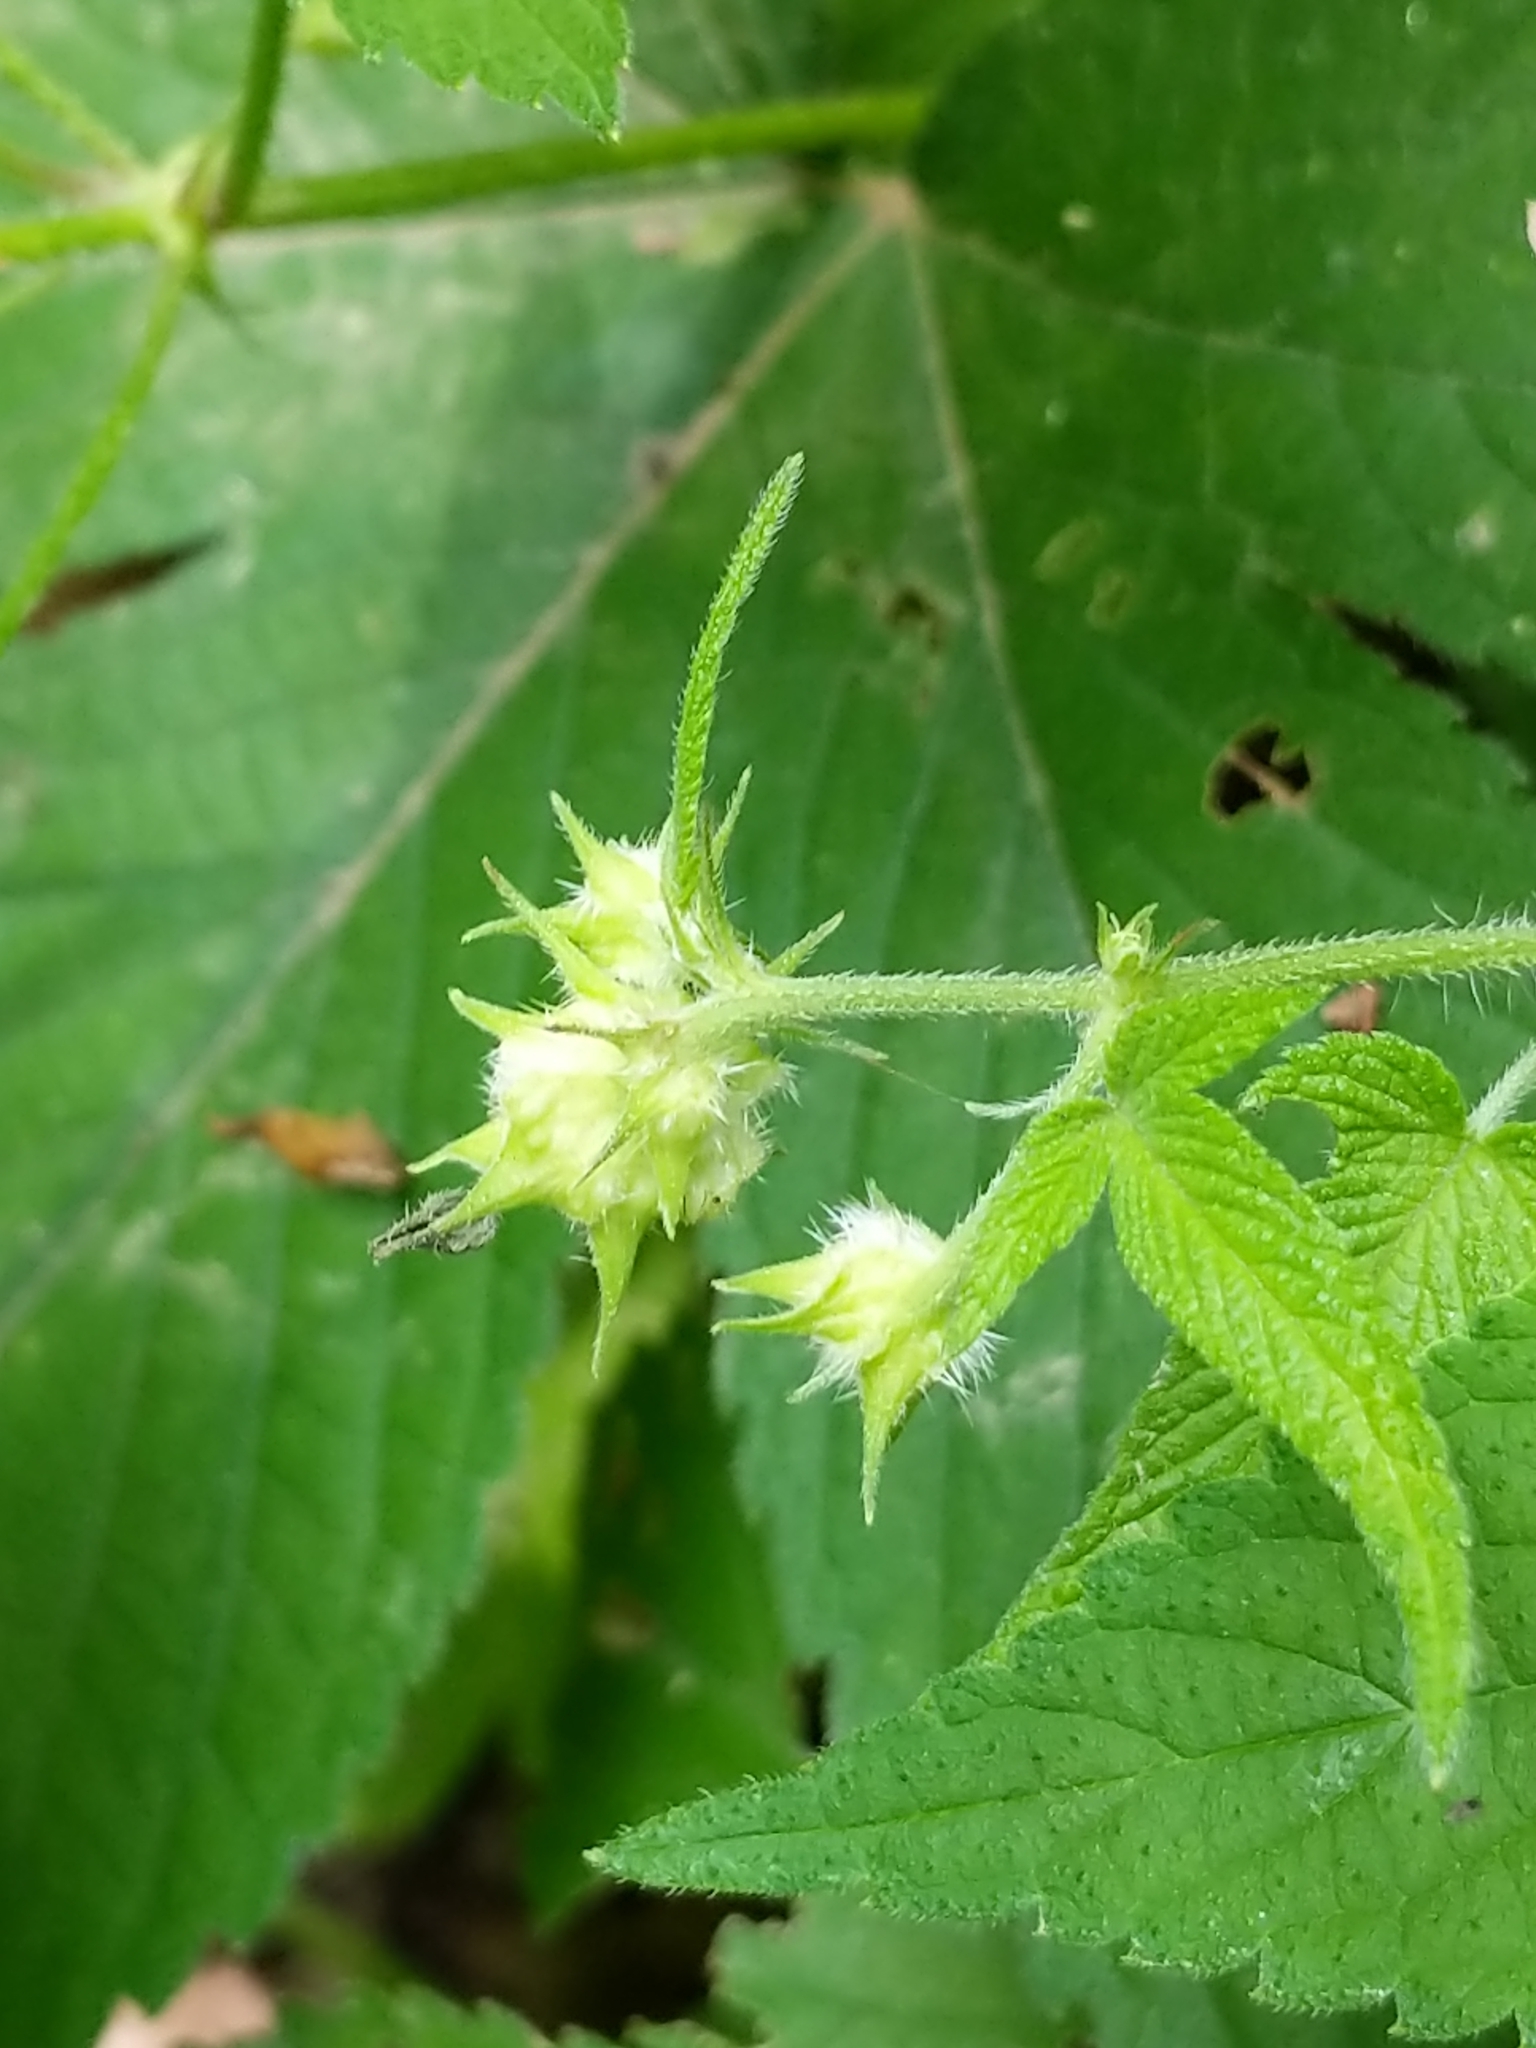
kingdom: Plantae
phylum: Tracheophyta
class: Magnoliopsida
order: Rosales
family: Cannabaceae
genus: Humulus
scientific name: Humulus scandens
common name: Japanese hop
